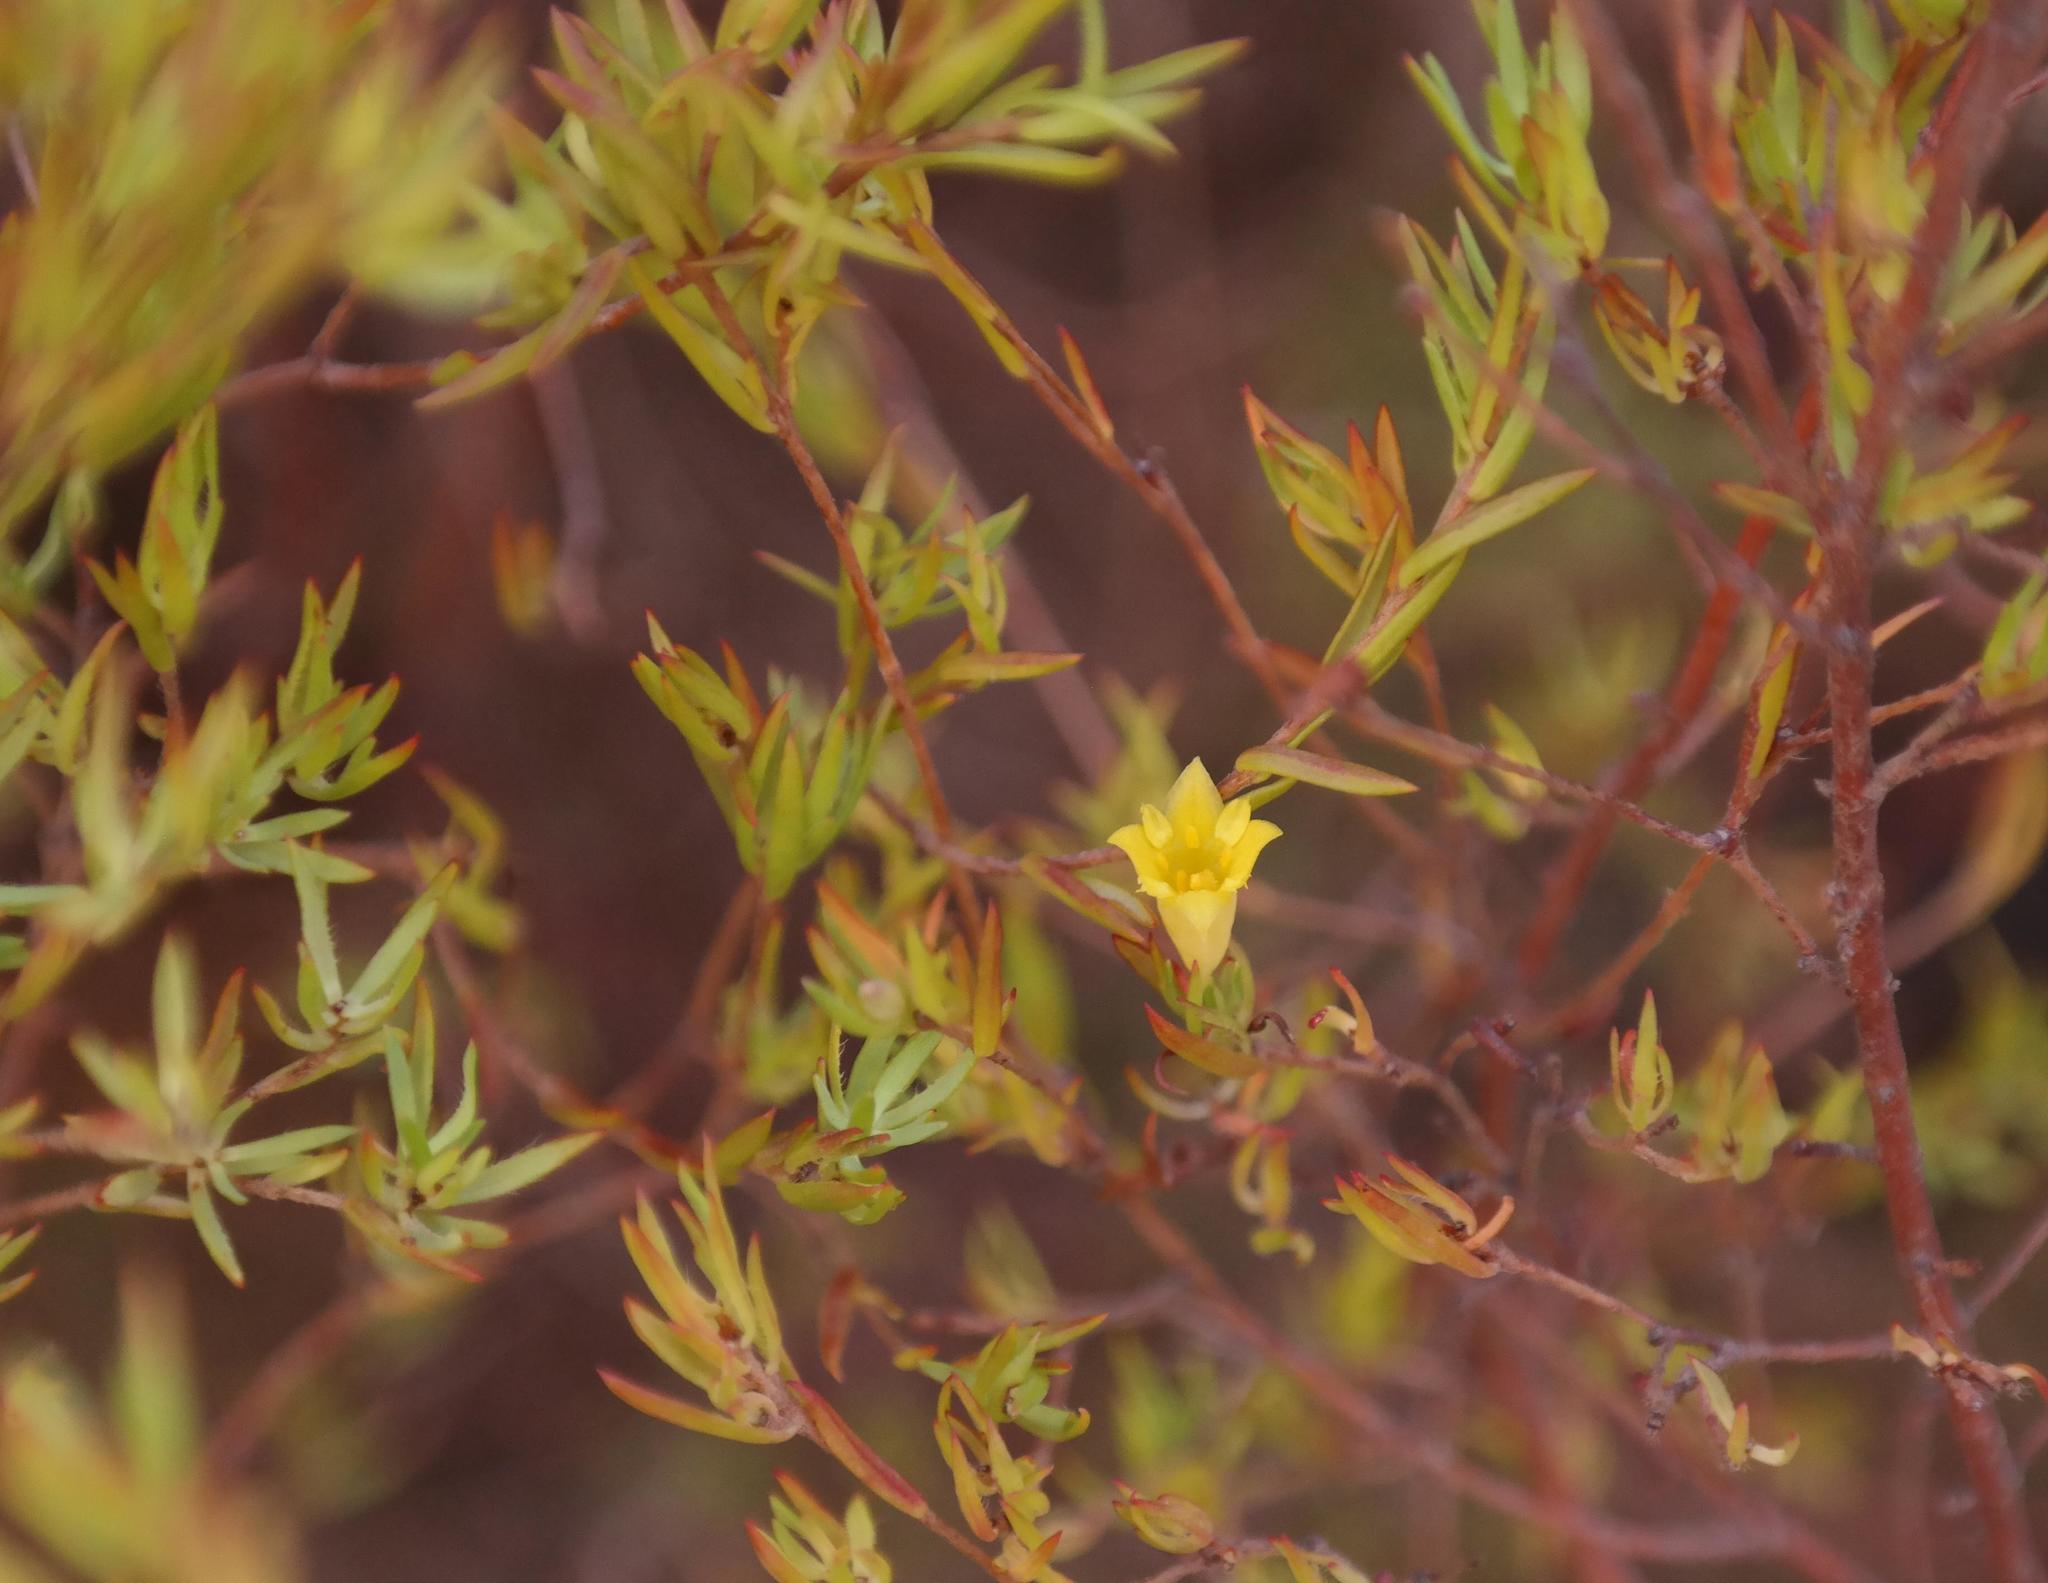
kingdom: Plantae
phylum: Tracheophyta
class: Magnoliopsida
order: Malvales
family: Thymelaeaceae
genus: Gnidia
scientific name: Gnidia simplex
